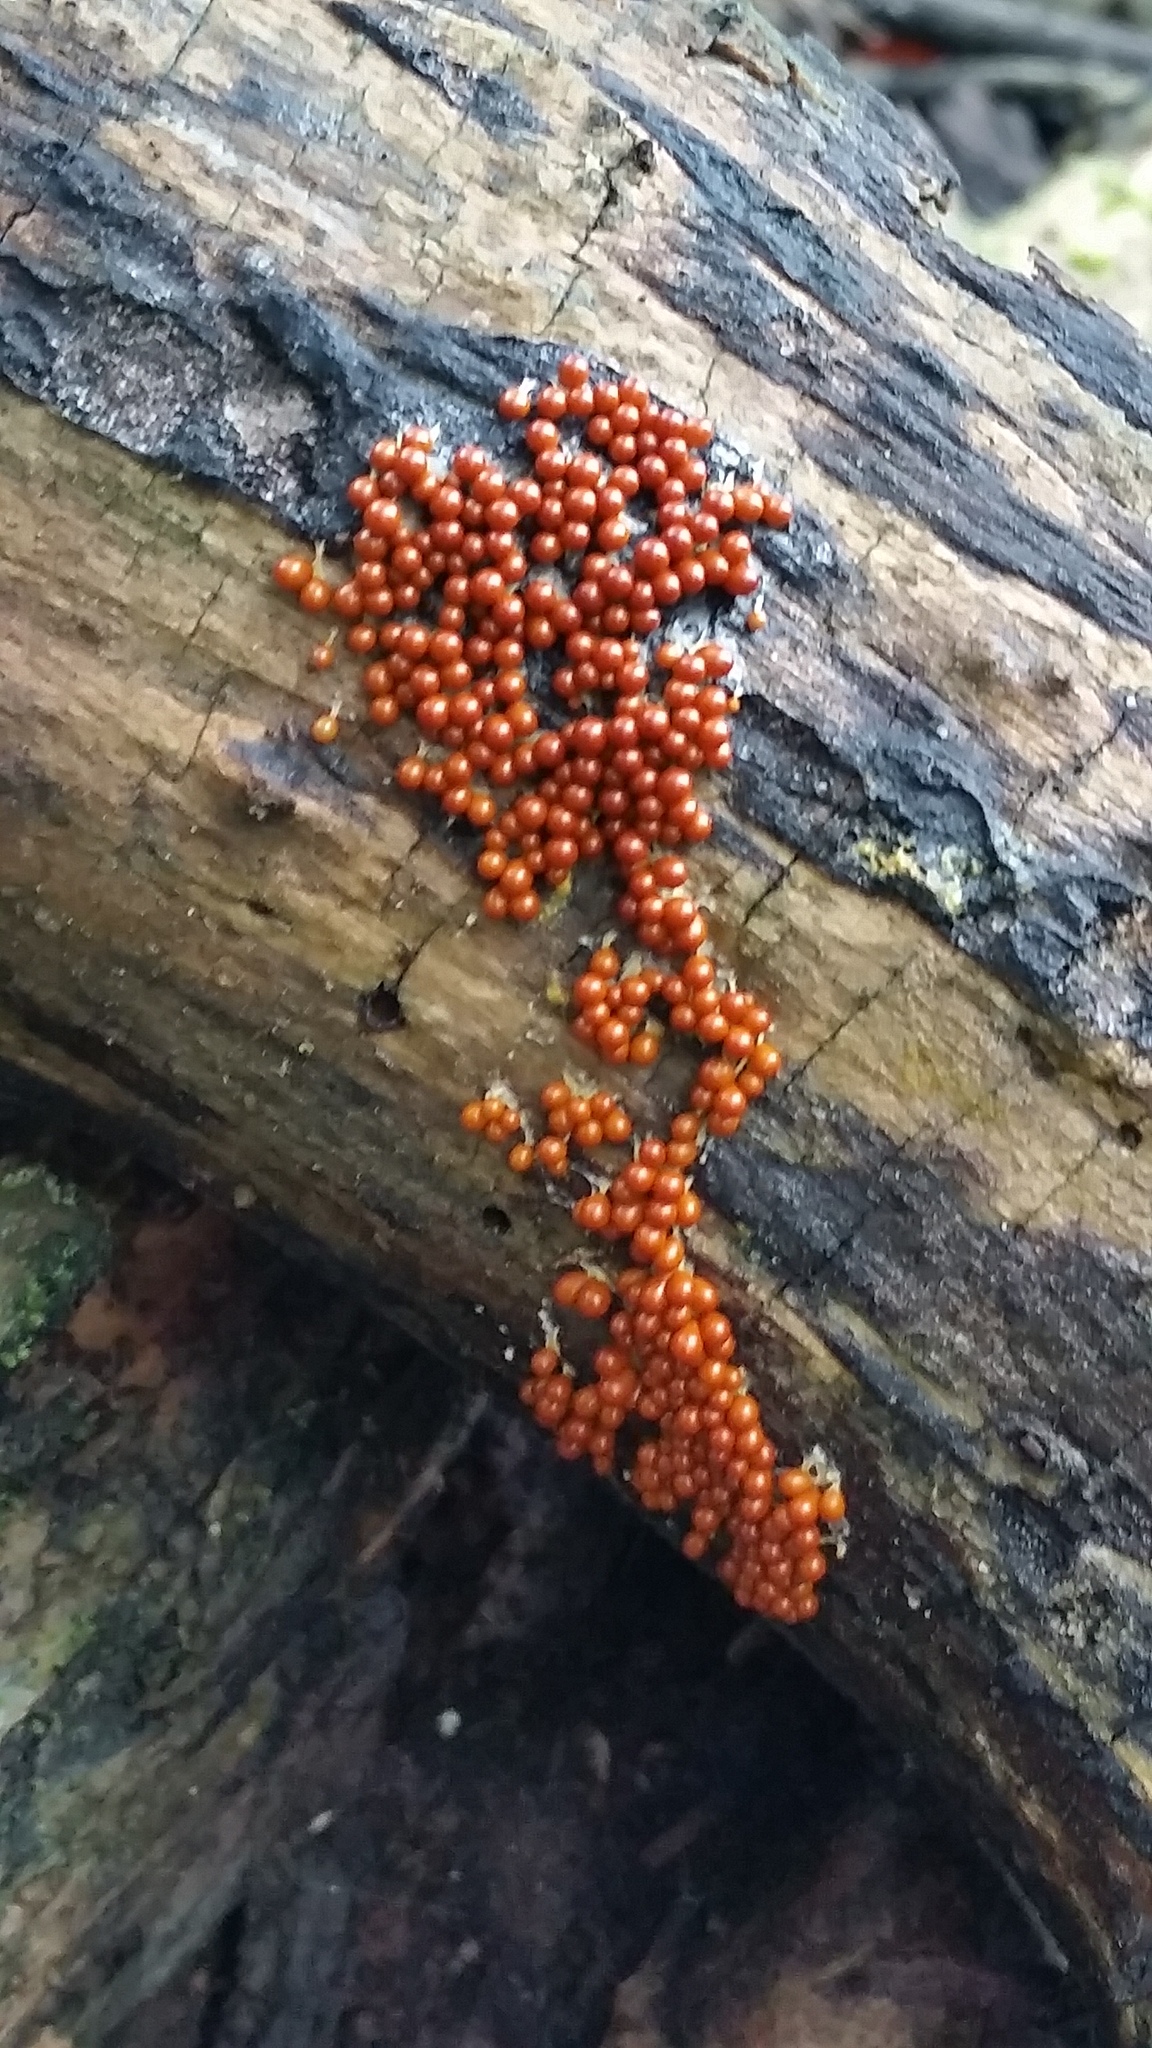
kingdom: Protozoa
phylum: Mycetozoa
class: Myxomycetes
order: Physarales
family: Physaraceae
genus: Leocarpus
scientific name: Leocarpus fragilis
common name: Insect-egg slime
